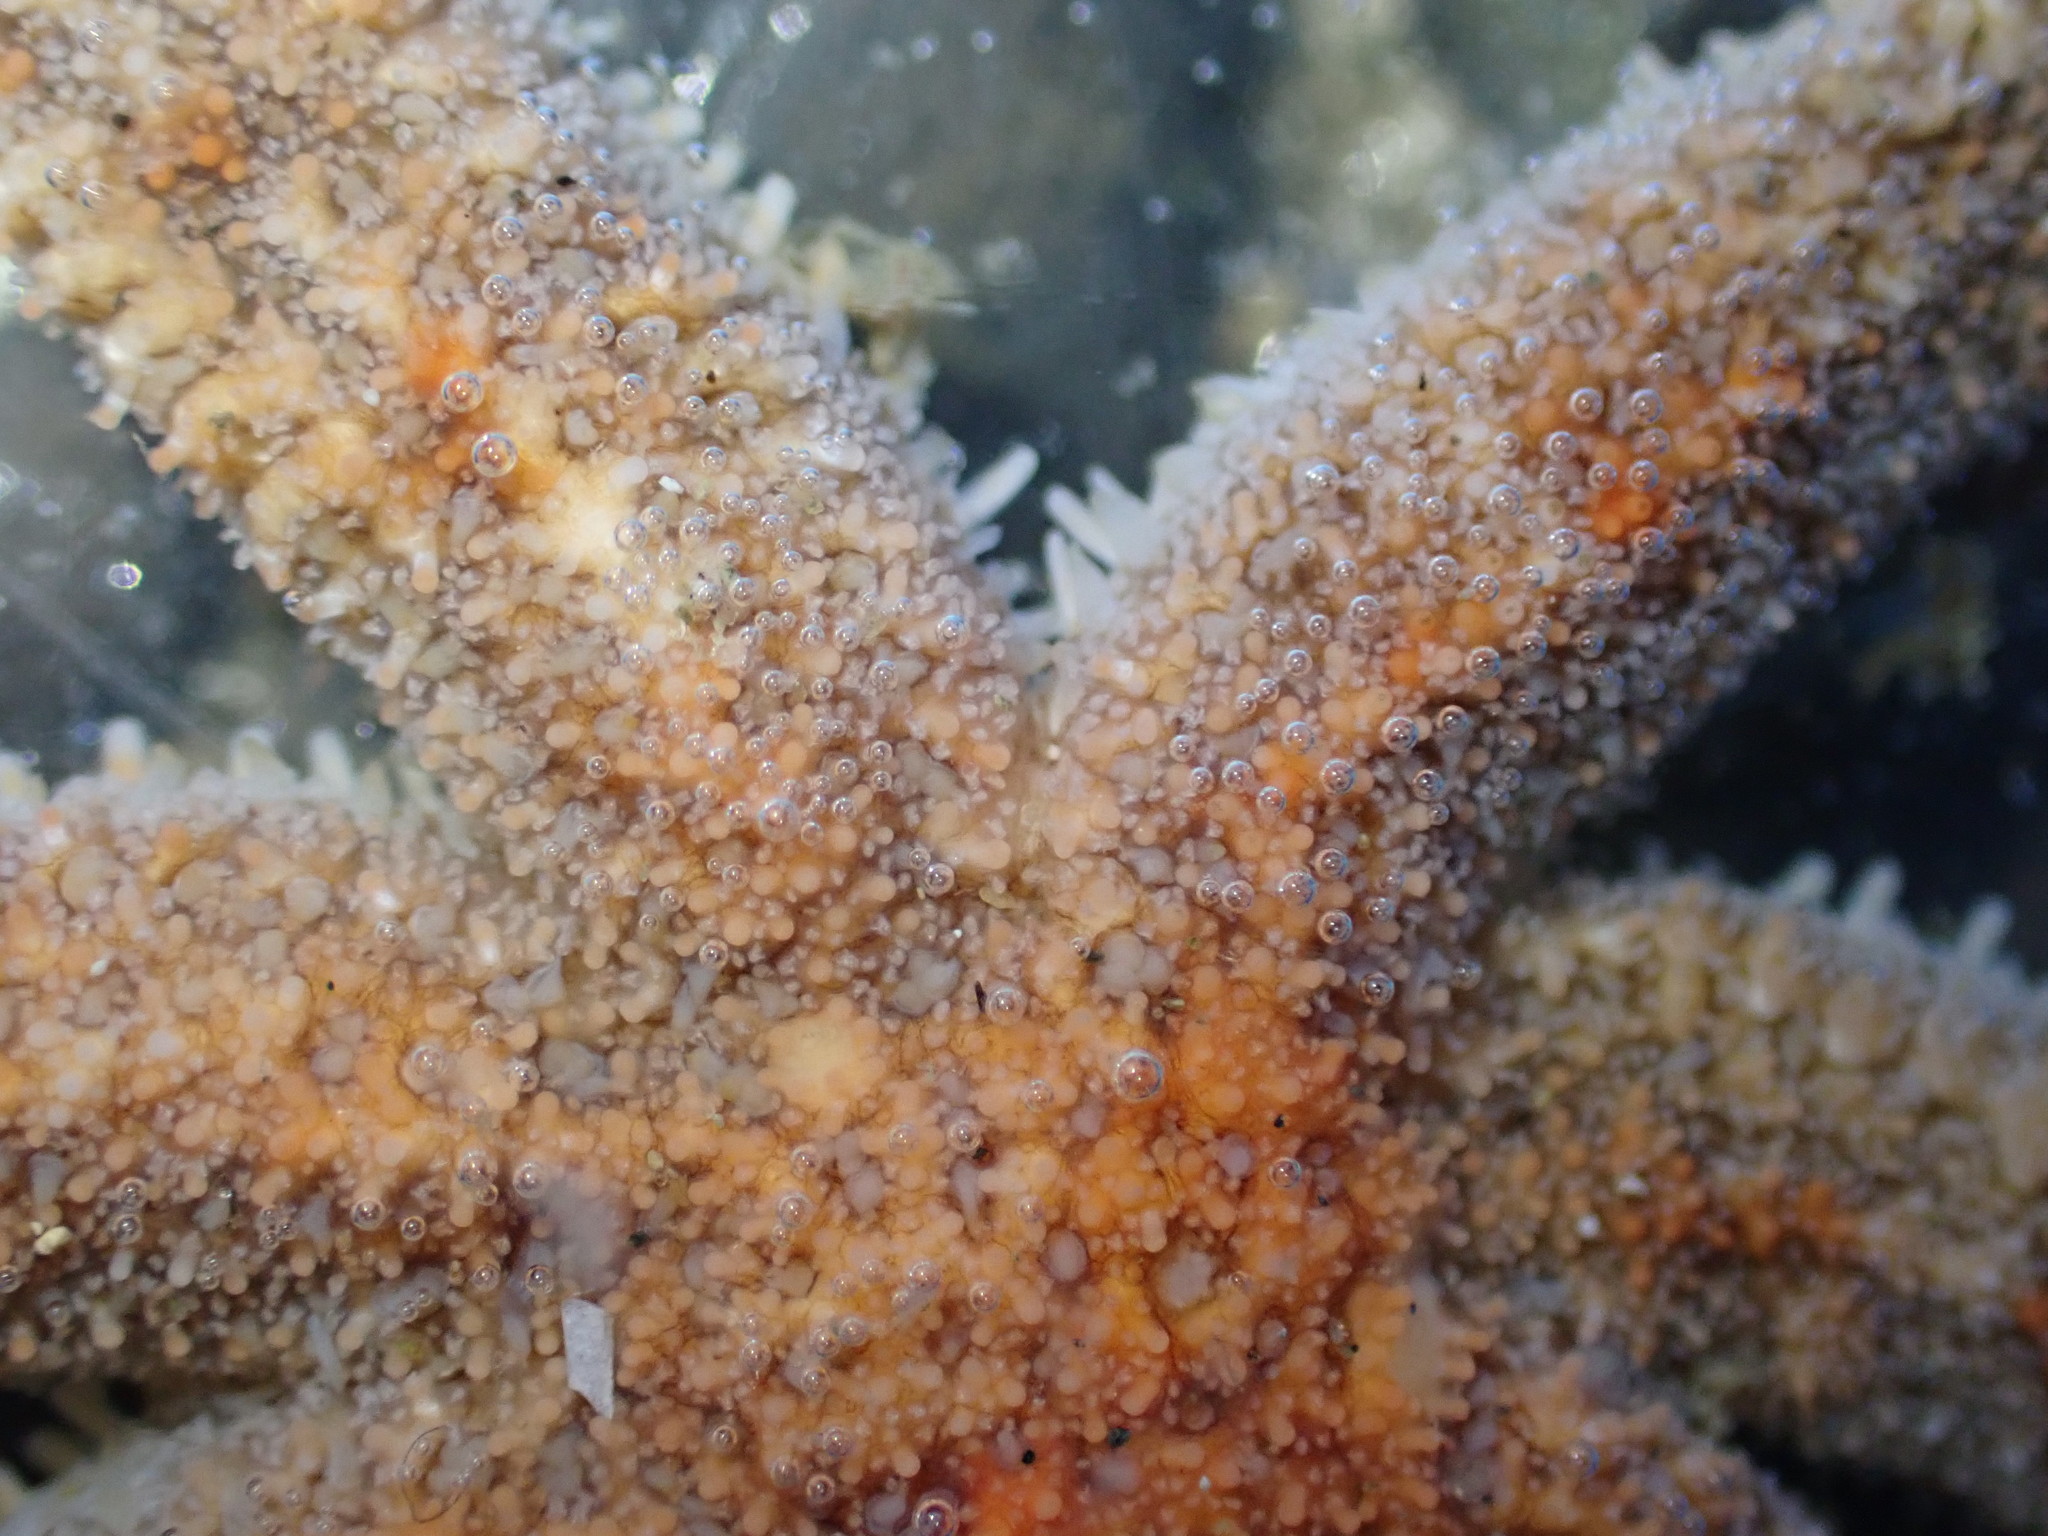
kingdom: Animalia
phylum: Echinodermata
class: Asteroidea
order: Forcipulatida
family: Stichasteridae
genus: Allostichaster
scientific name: Allostichaster polyplax
